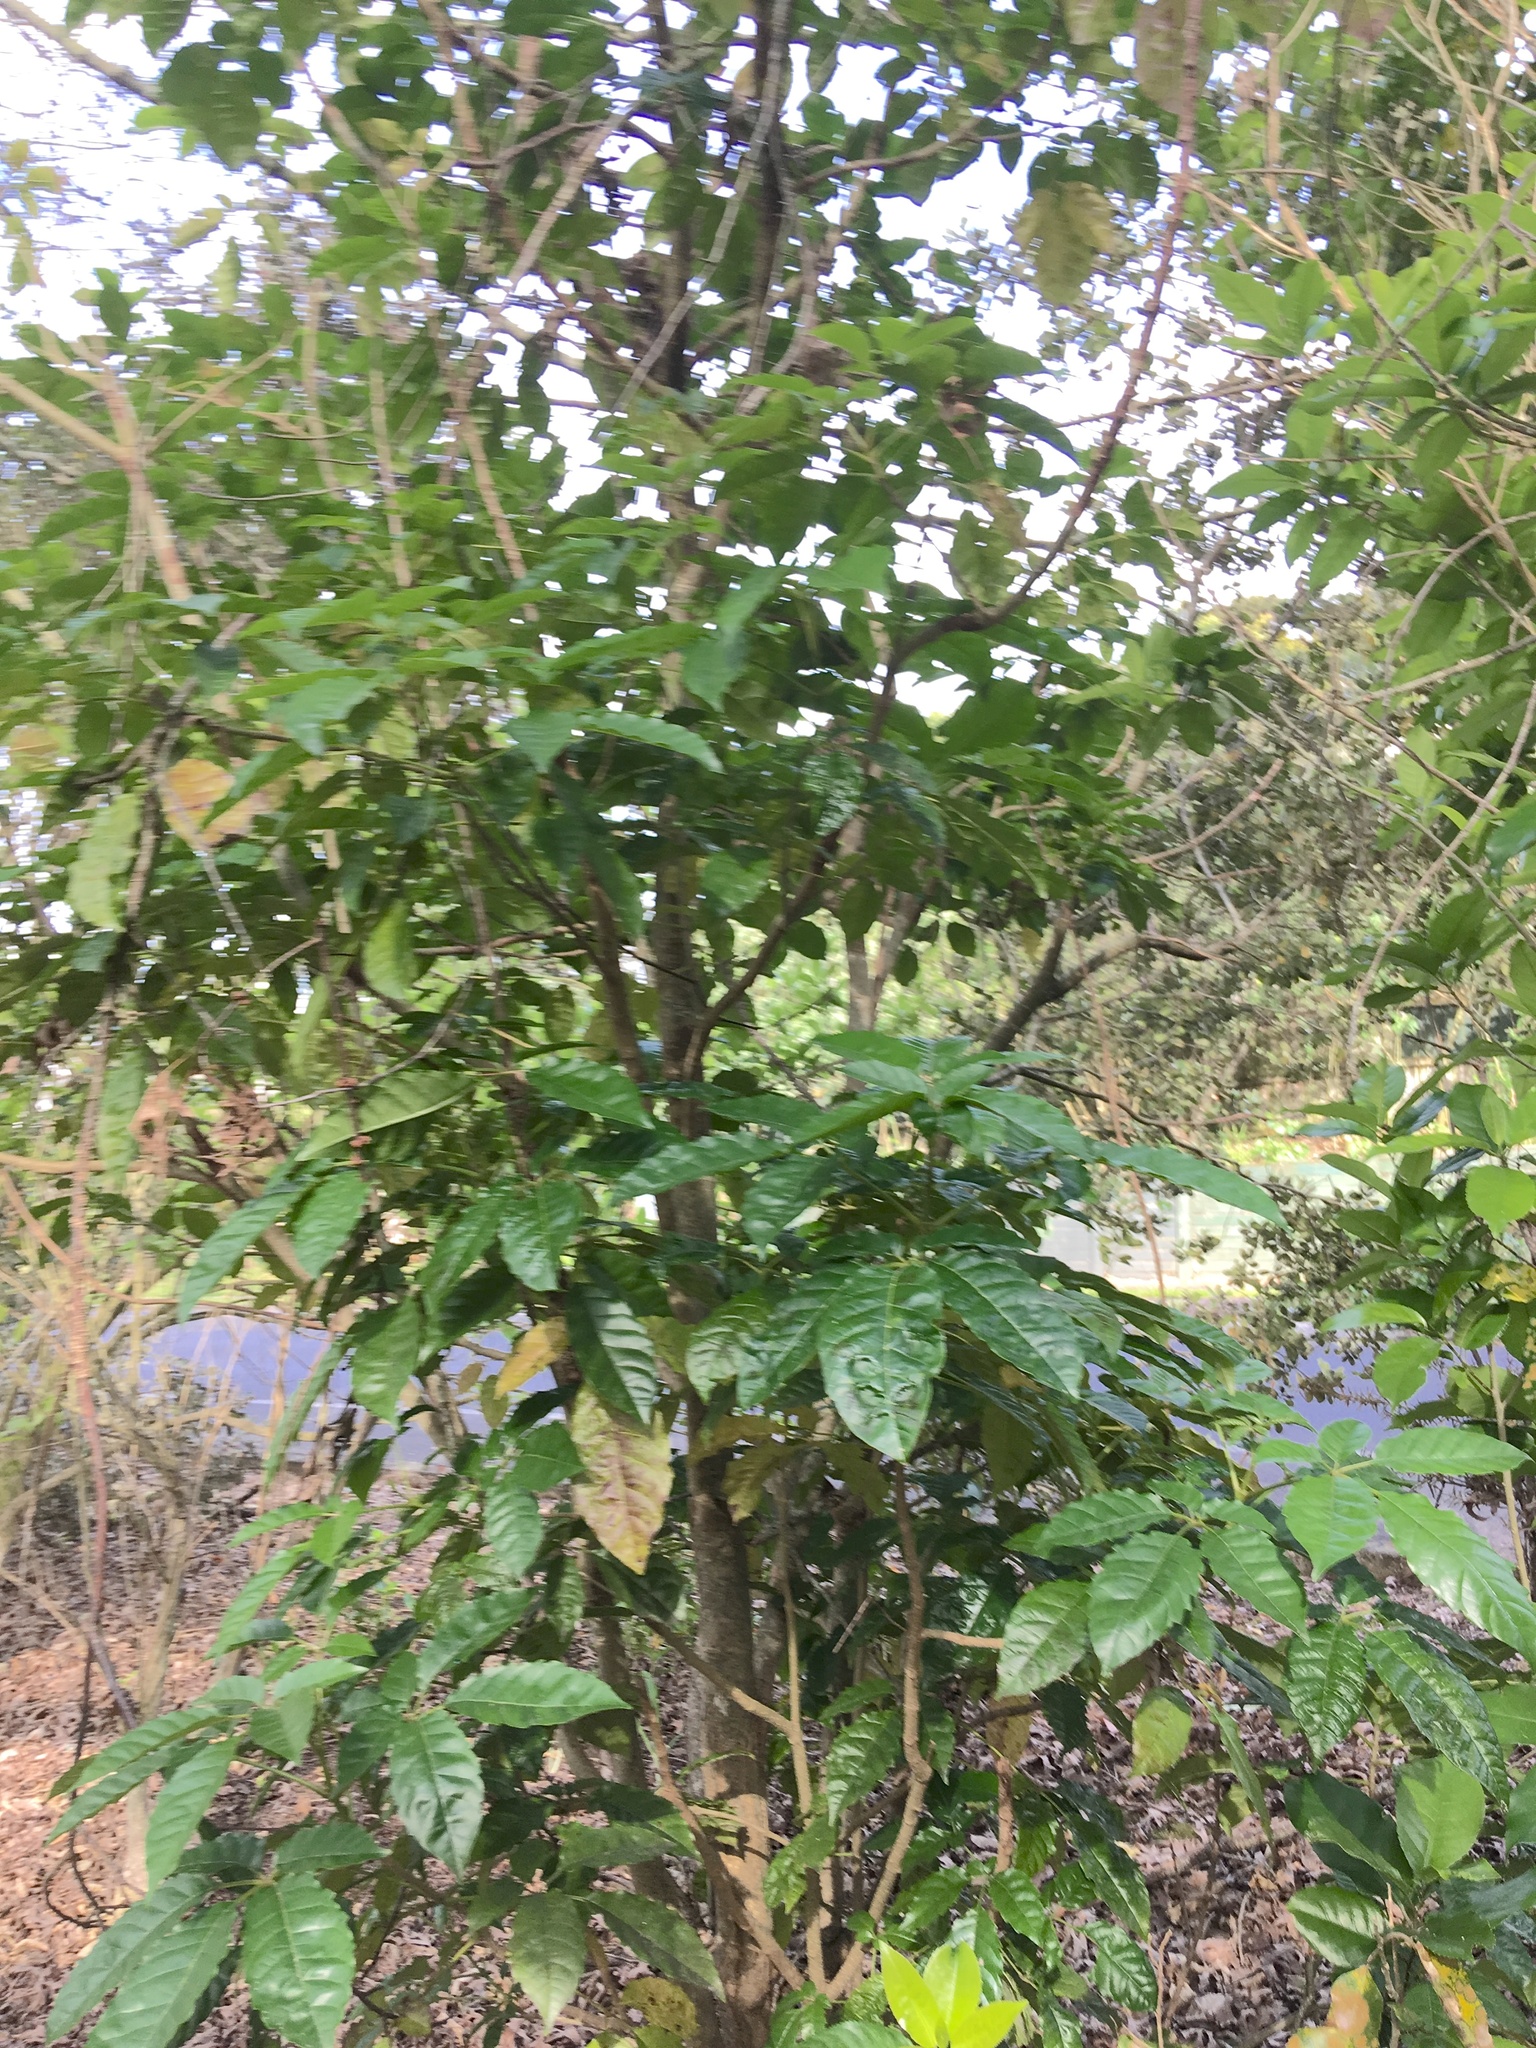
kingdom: Plantae
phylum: Tracheophyta
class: Magnoliopsida
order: Lamiales
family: Lamiaceae
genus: Vitex
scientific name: Vitex lucens
